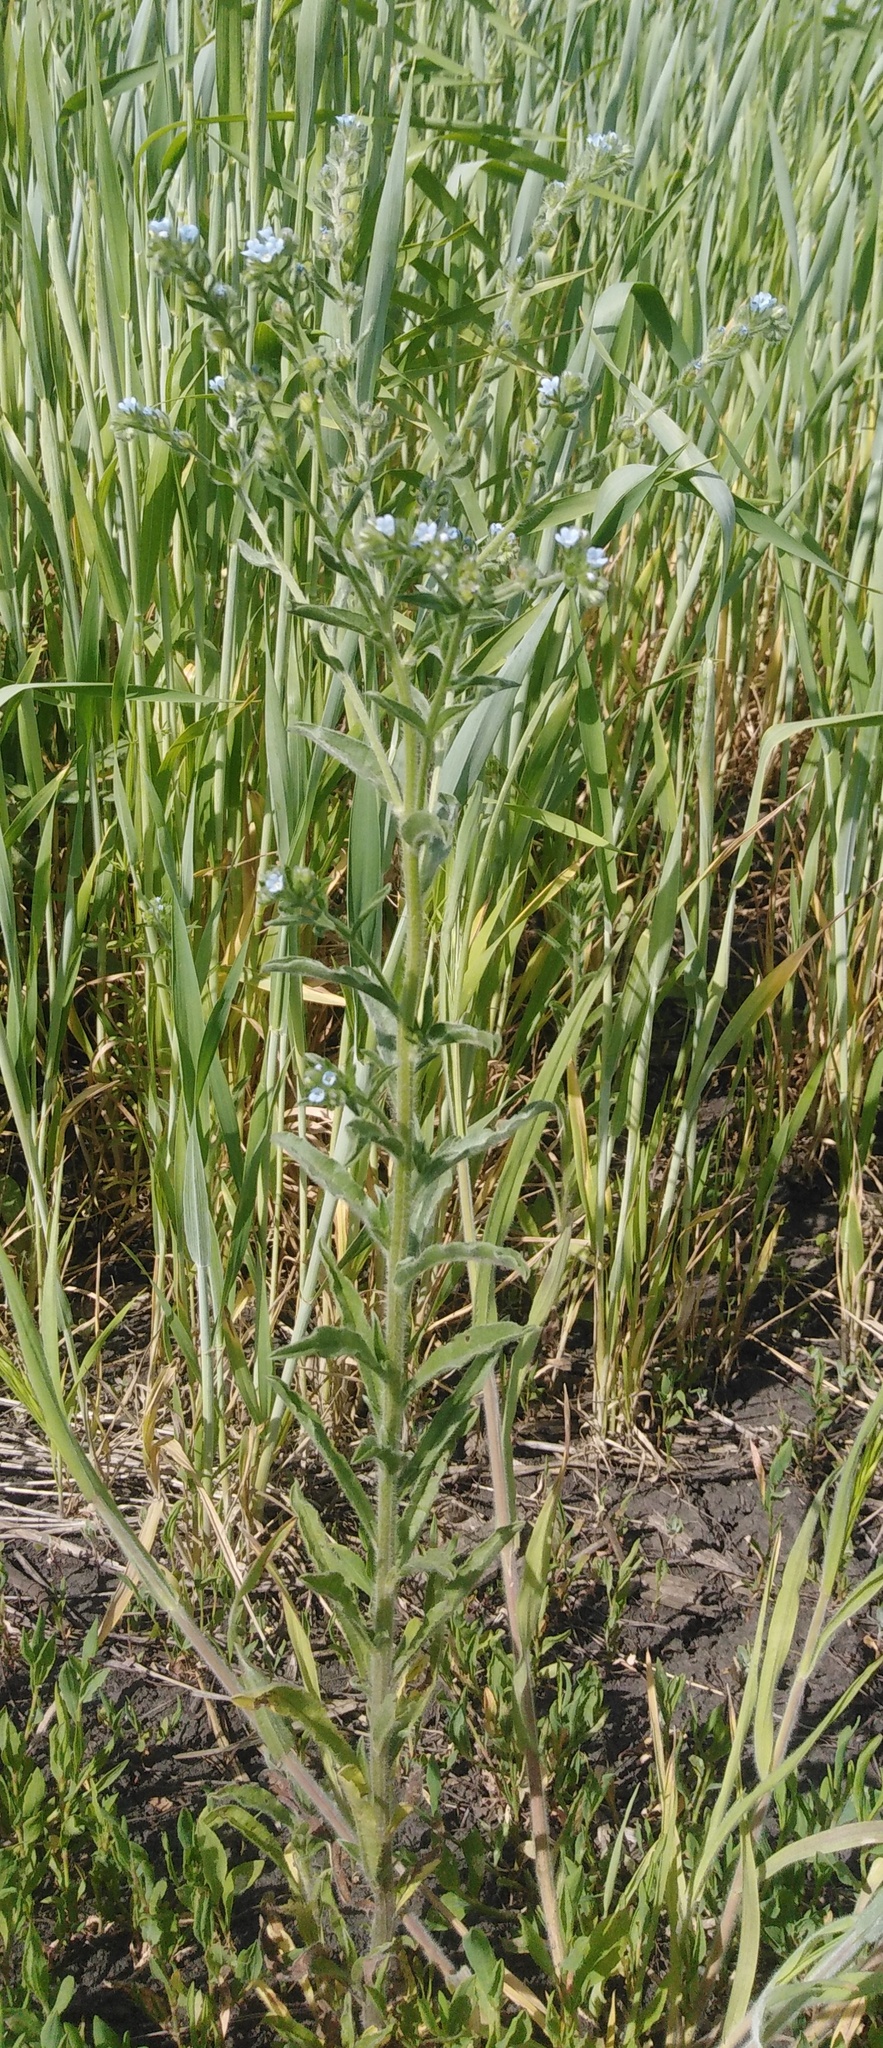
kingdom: Plantae
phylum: Tracheophyta
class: Magnoliopsida
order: Boraginales
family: Boraginaceae
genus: Lappula
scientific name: Lappula squarrosa
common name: European stickseed
